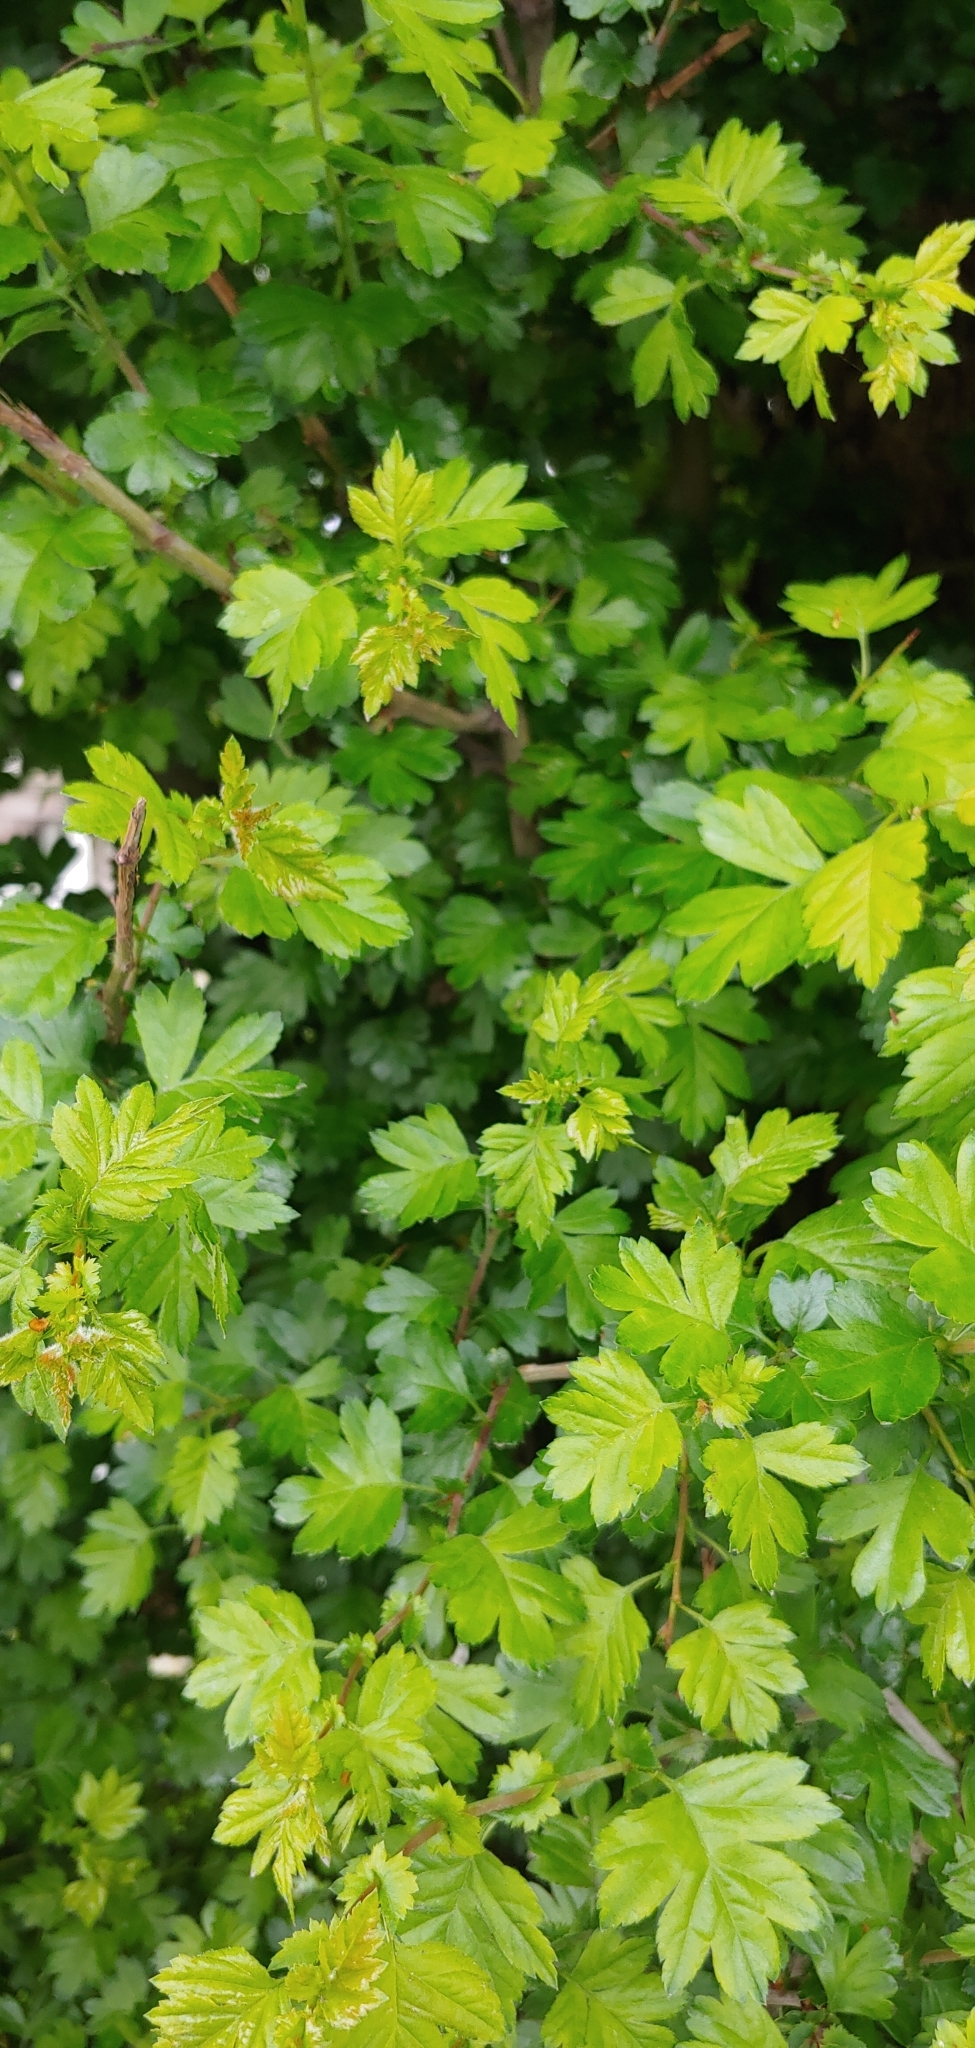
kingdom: Plantae
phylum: Tracheophyta
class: Magnoliopsida
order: Rosales
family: Rosaceae
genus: Crataegus
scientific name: Crataegus monogyna
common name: Hawthorn
